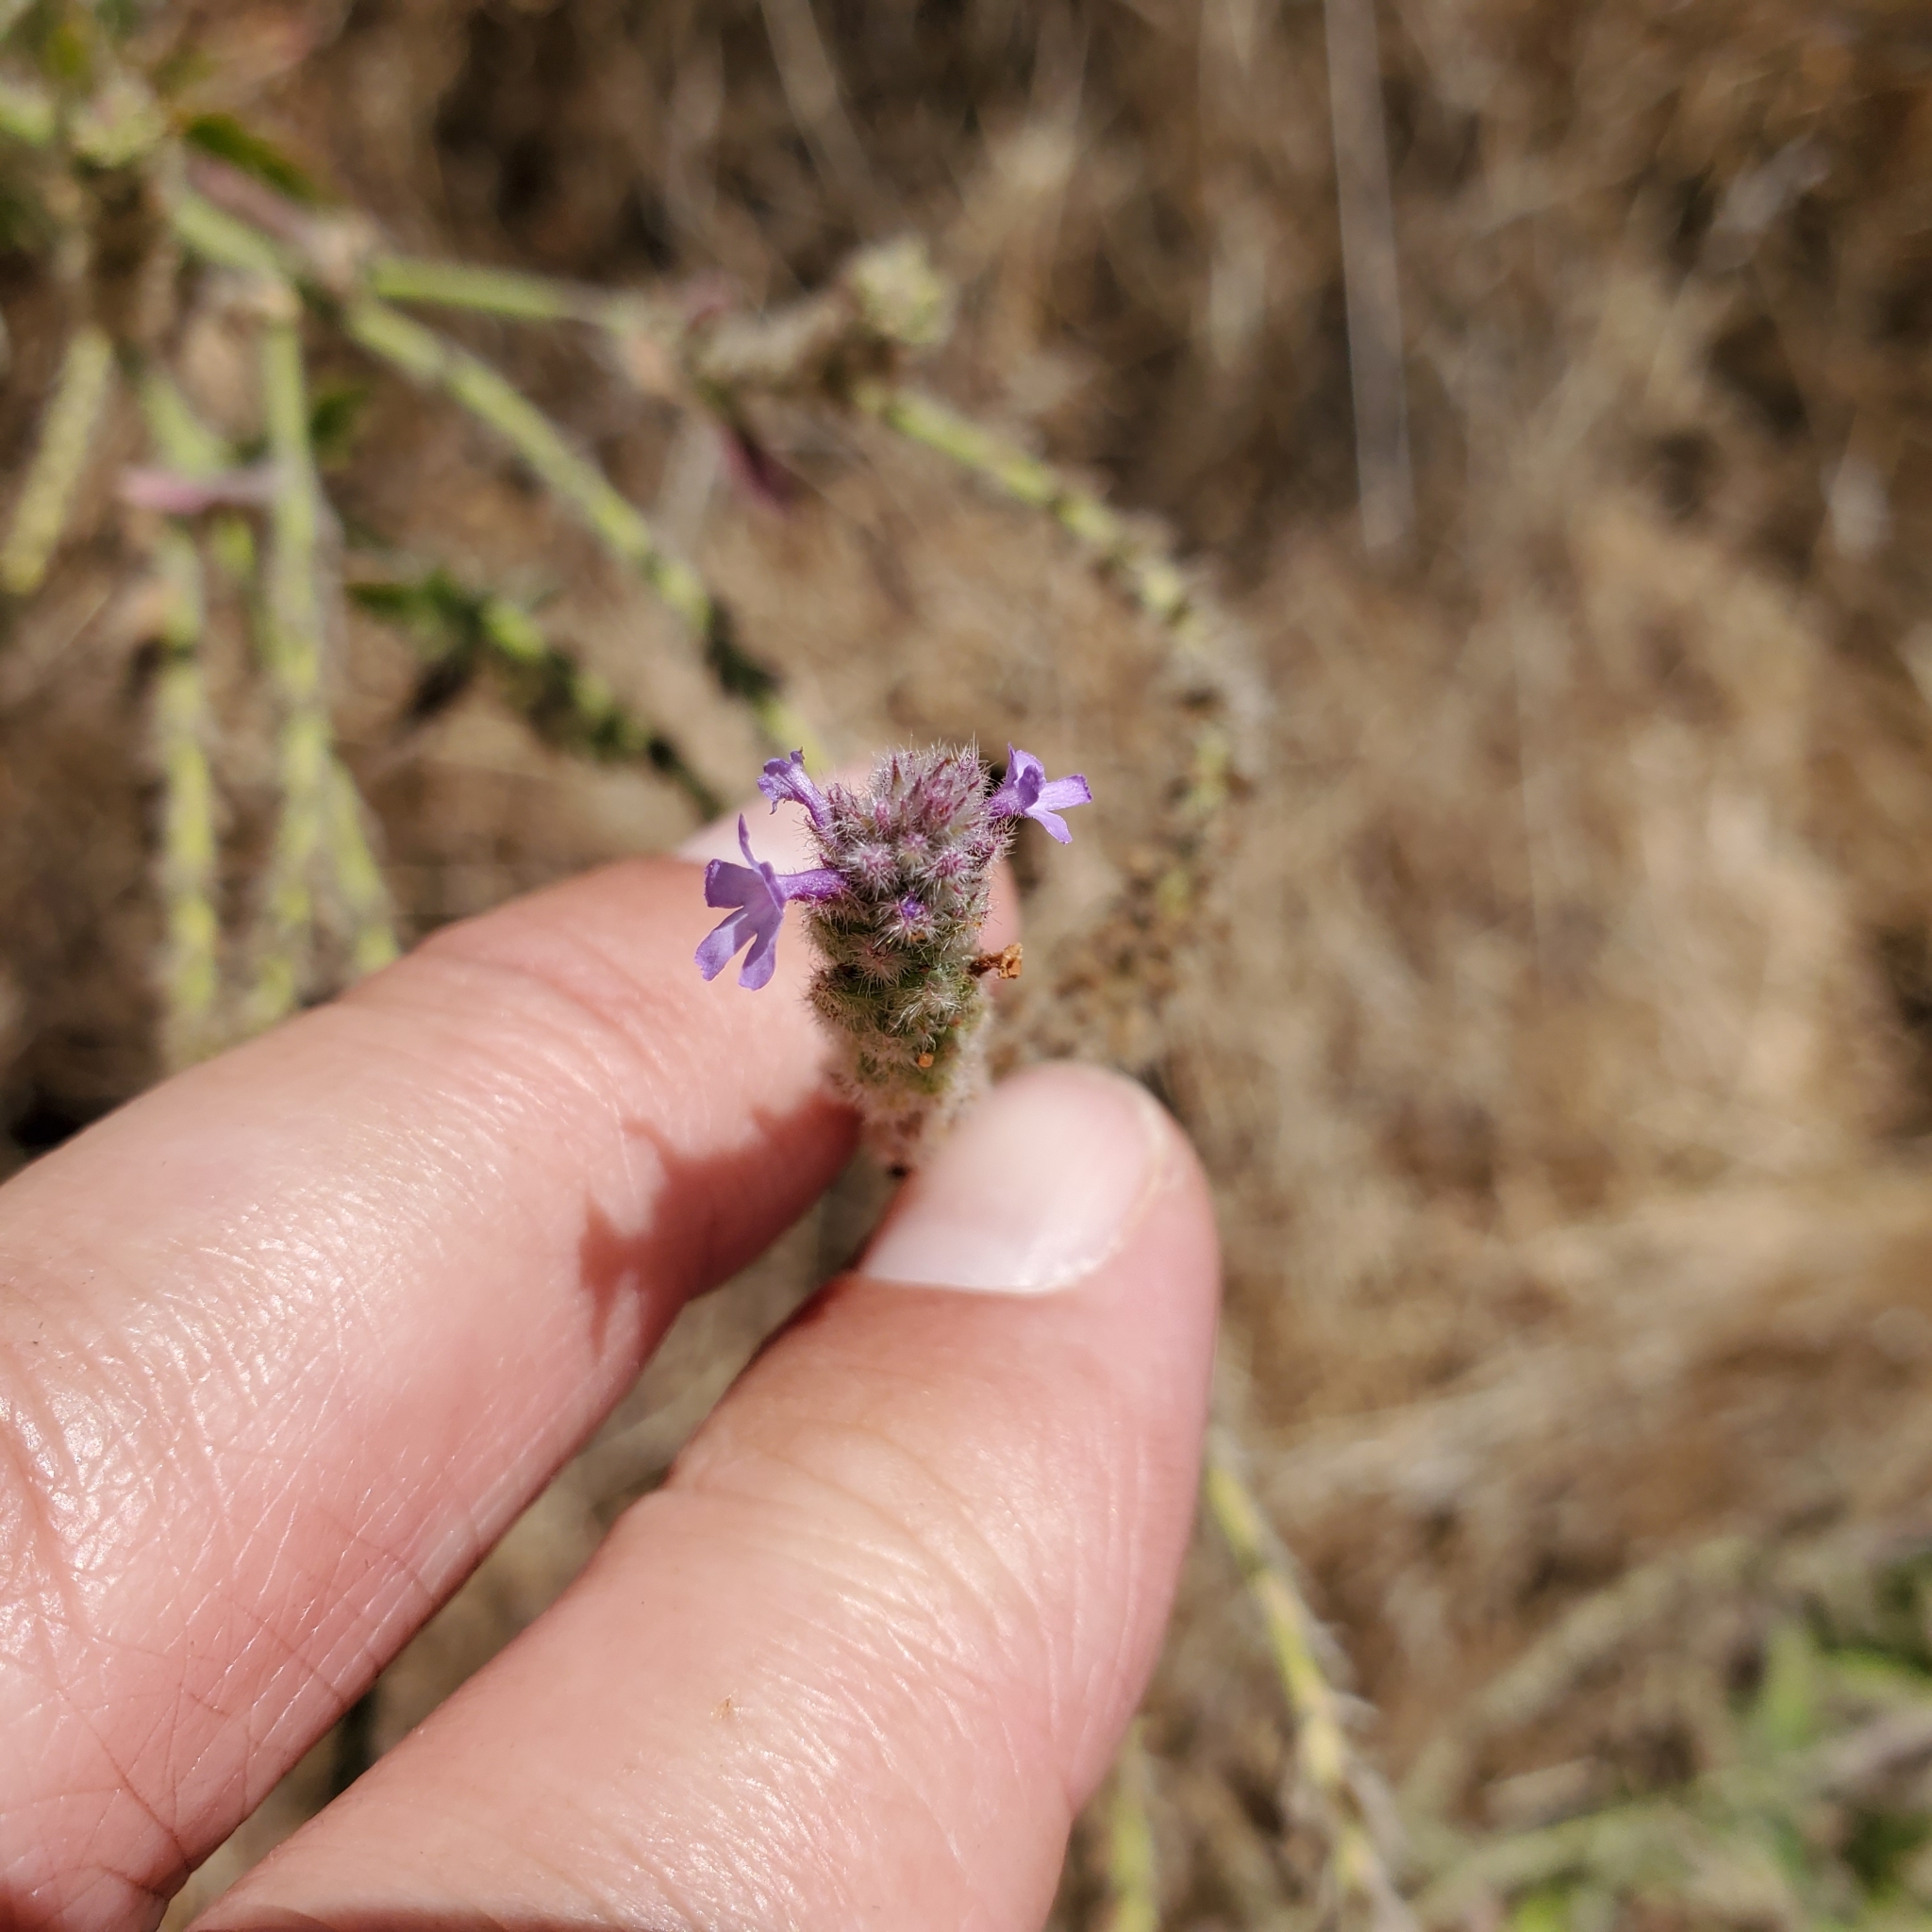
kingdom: Plantae
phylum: Tracheophyta
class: Magnoliopsida
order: Lamiales
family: Verbenaceae
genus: Verbena
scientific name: Verbena lasiostachys
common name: Vervain
